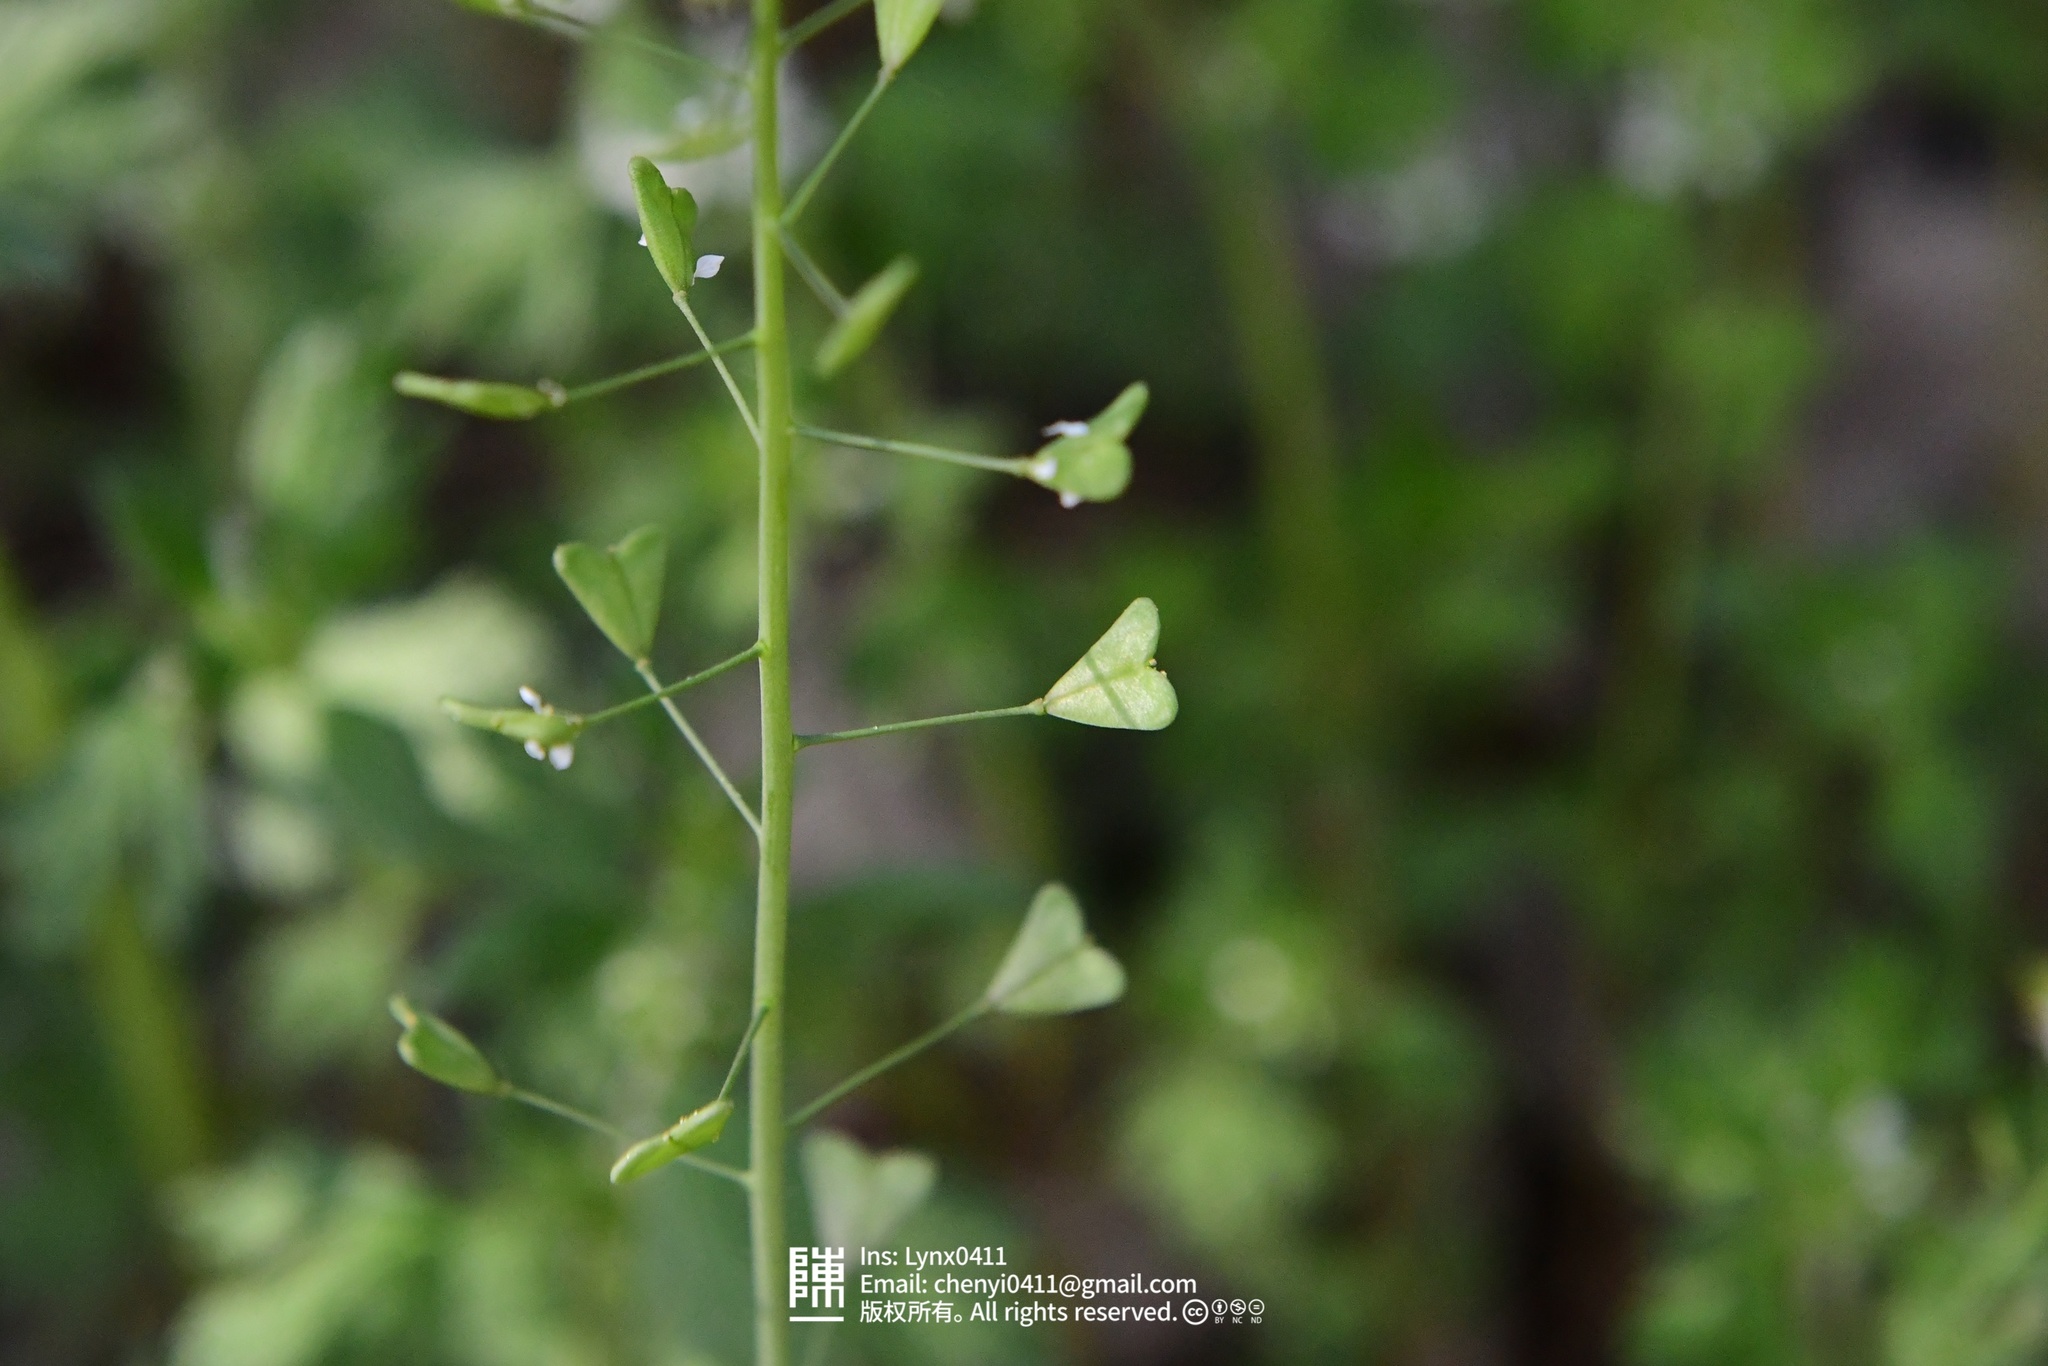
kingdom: Plantae
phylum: Tracheophyta
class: Magnoliopsida
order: Brassicales
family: Brassicaceae
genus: Capsella
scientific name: Capsella bursa-pastoris
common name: Shepherd's purse
